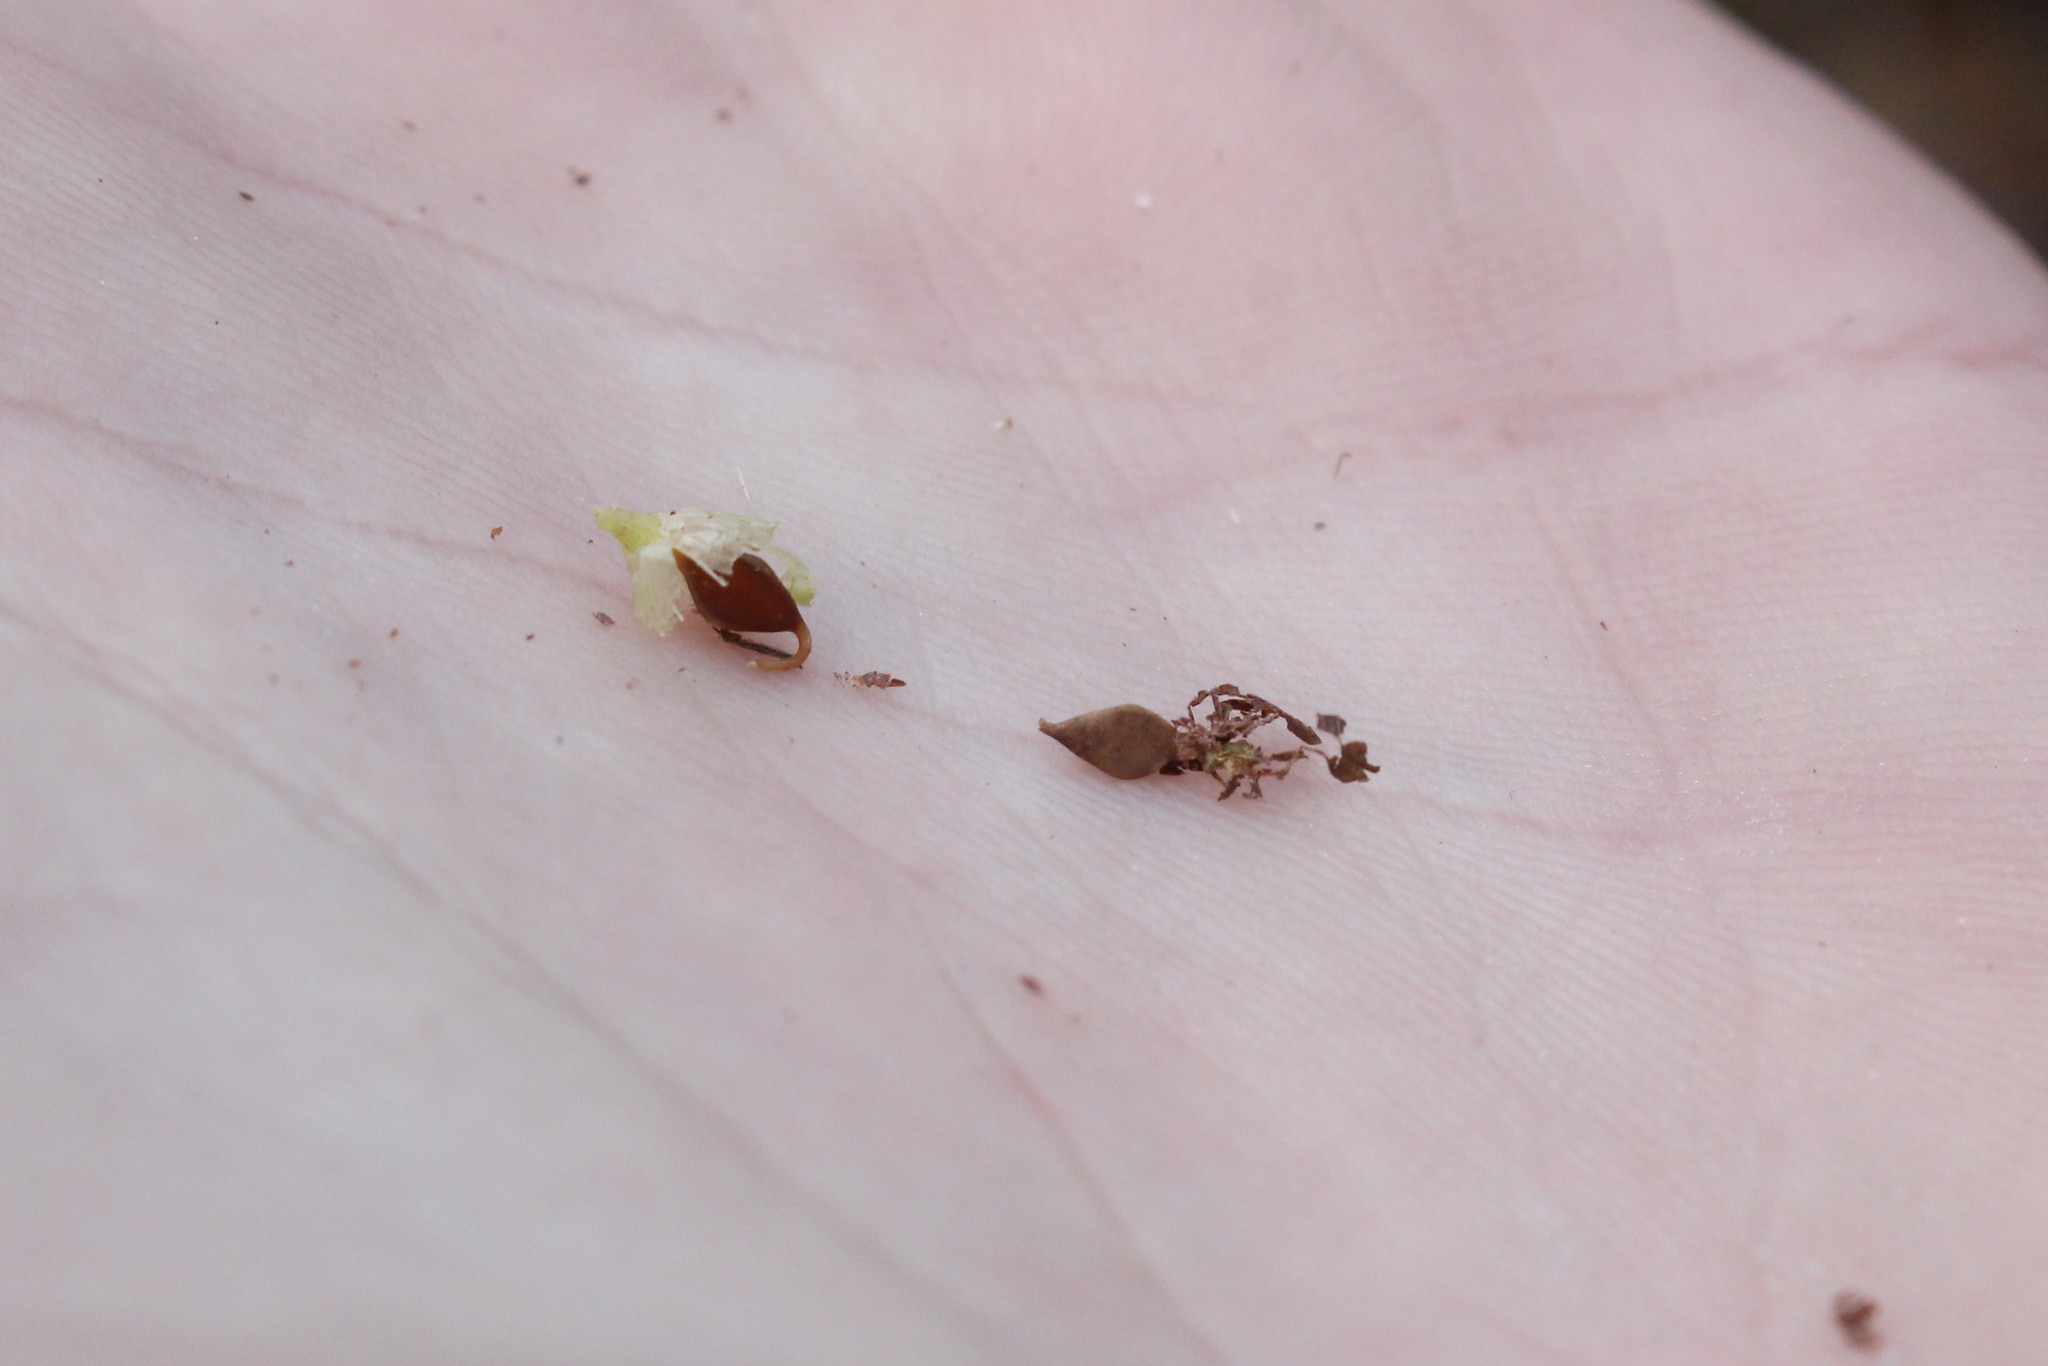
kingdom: Plantae
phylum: Tracheophyta
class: Liliopsida
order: Poales
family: Cyperaceae
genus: Carex
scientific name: Carex lupulina
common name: Hop sedge
